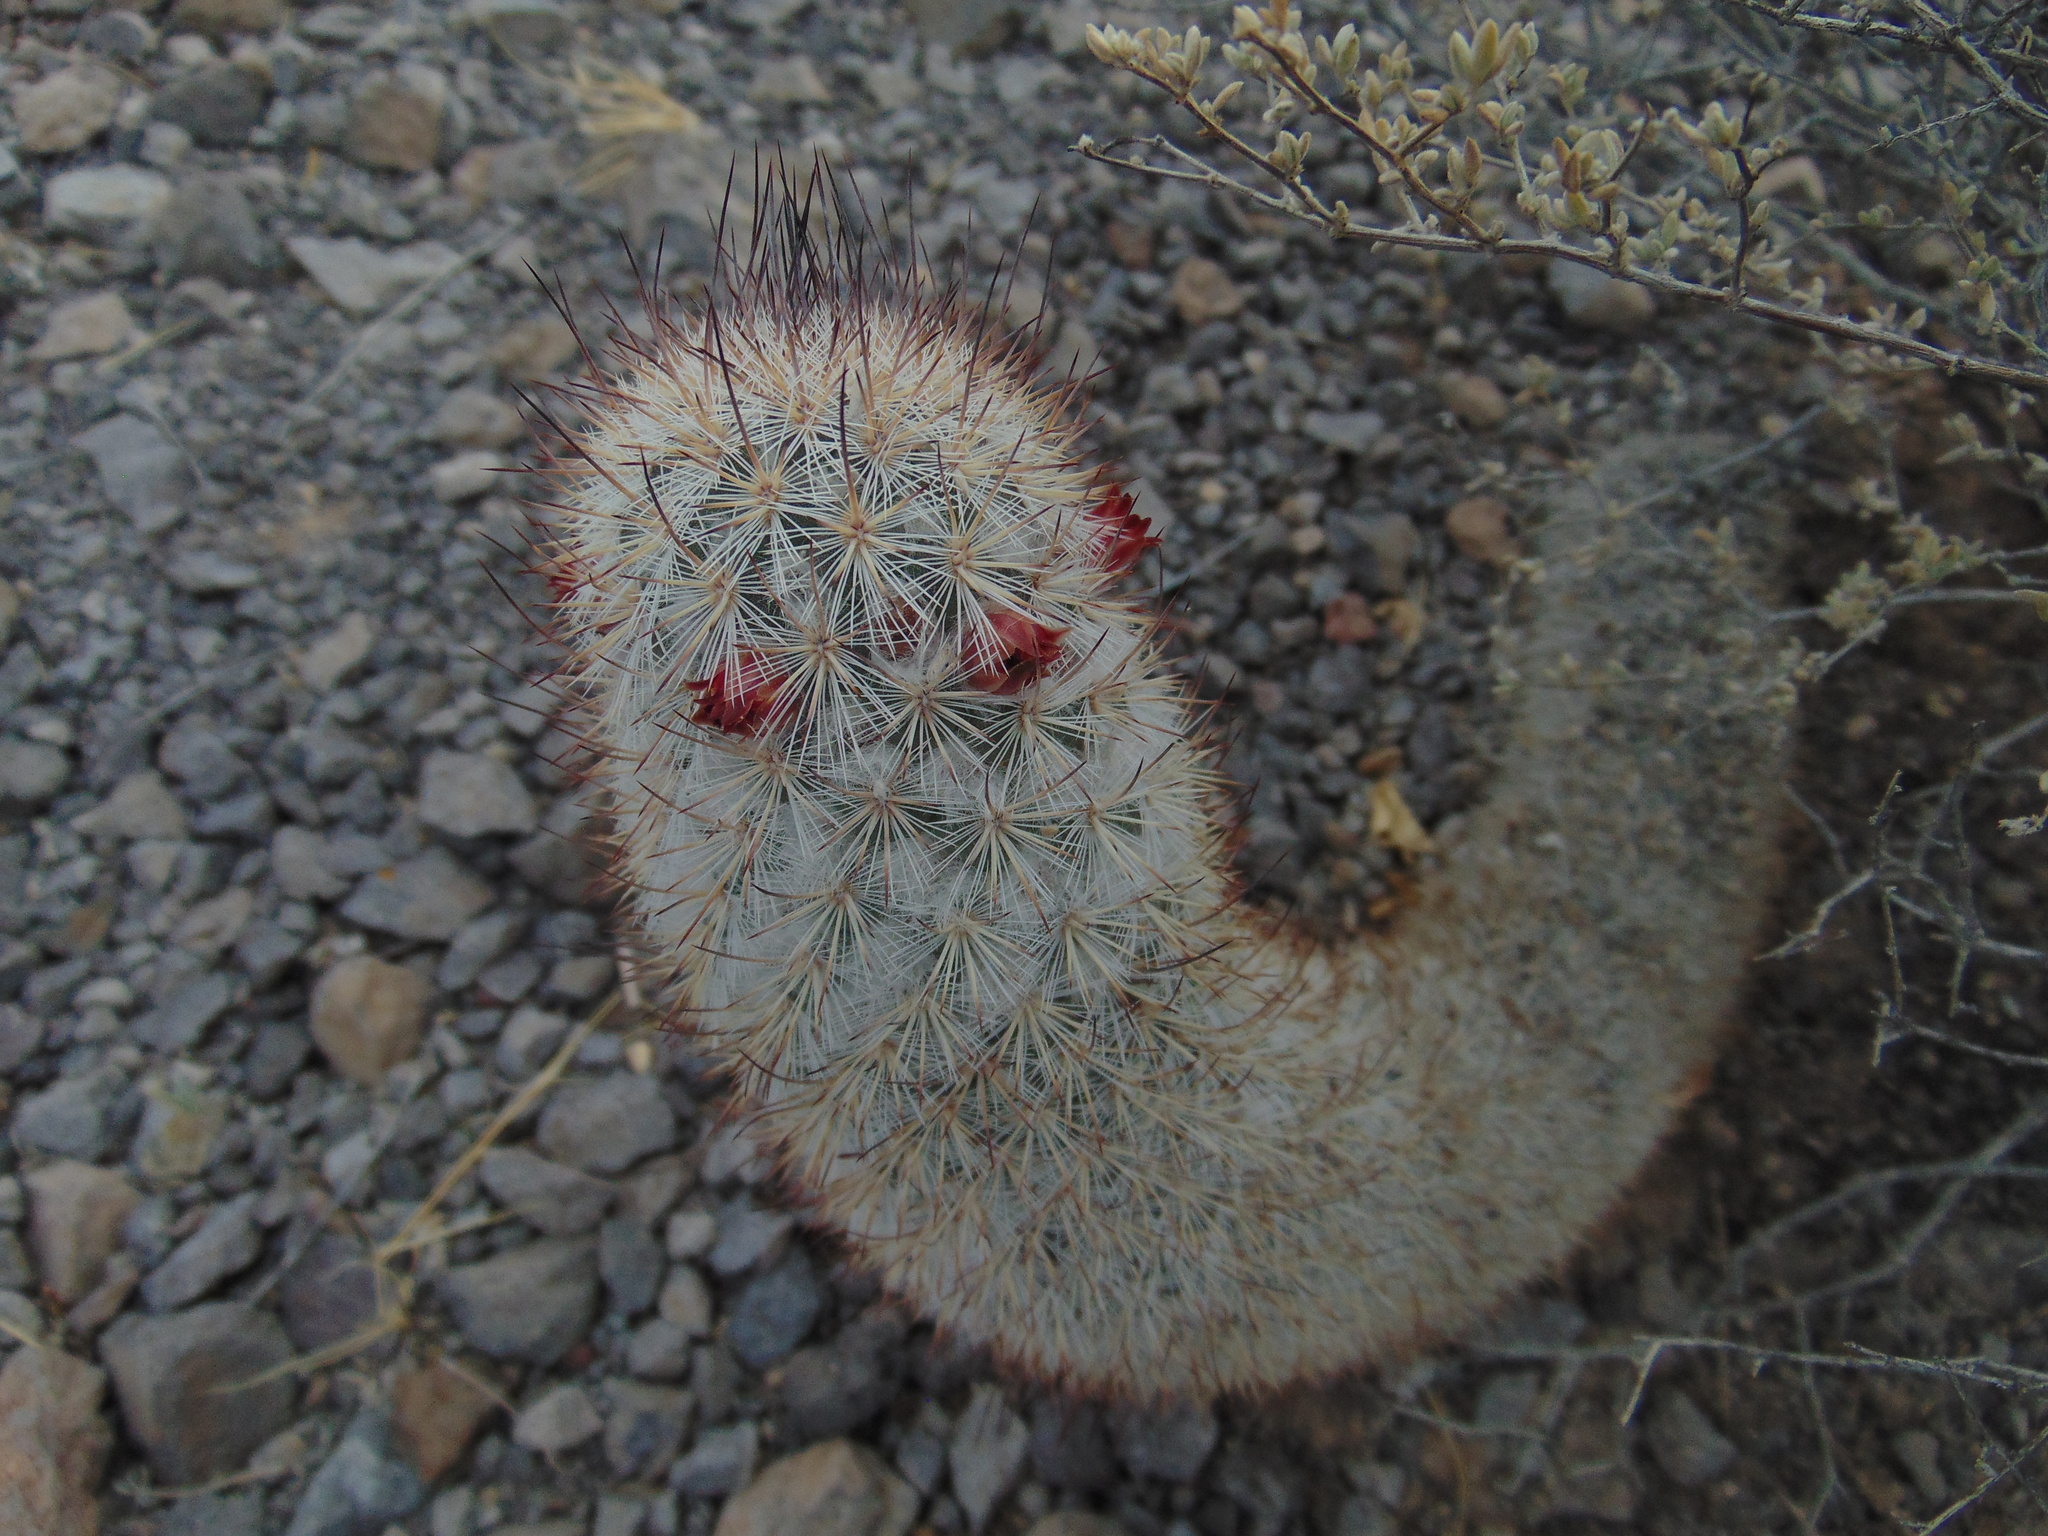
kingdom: Plantae
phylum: Tracheophyta
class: Magnoliopsida
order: Caryophyllales
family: Cactaceae
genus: Mammillaria
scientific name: Mammillaria pottsii
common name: Pott's nipple-cactus
